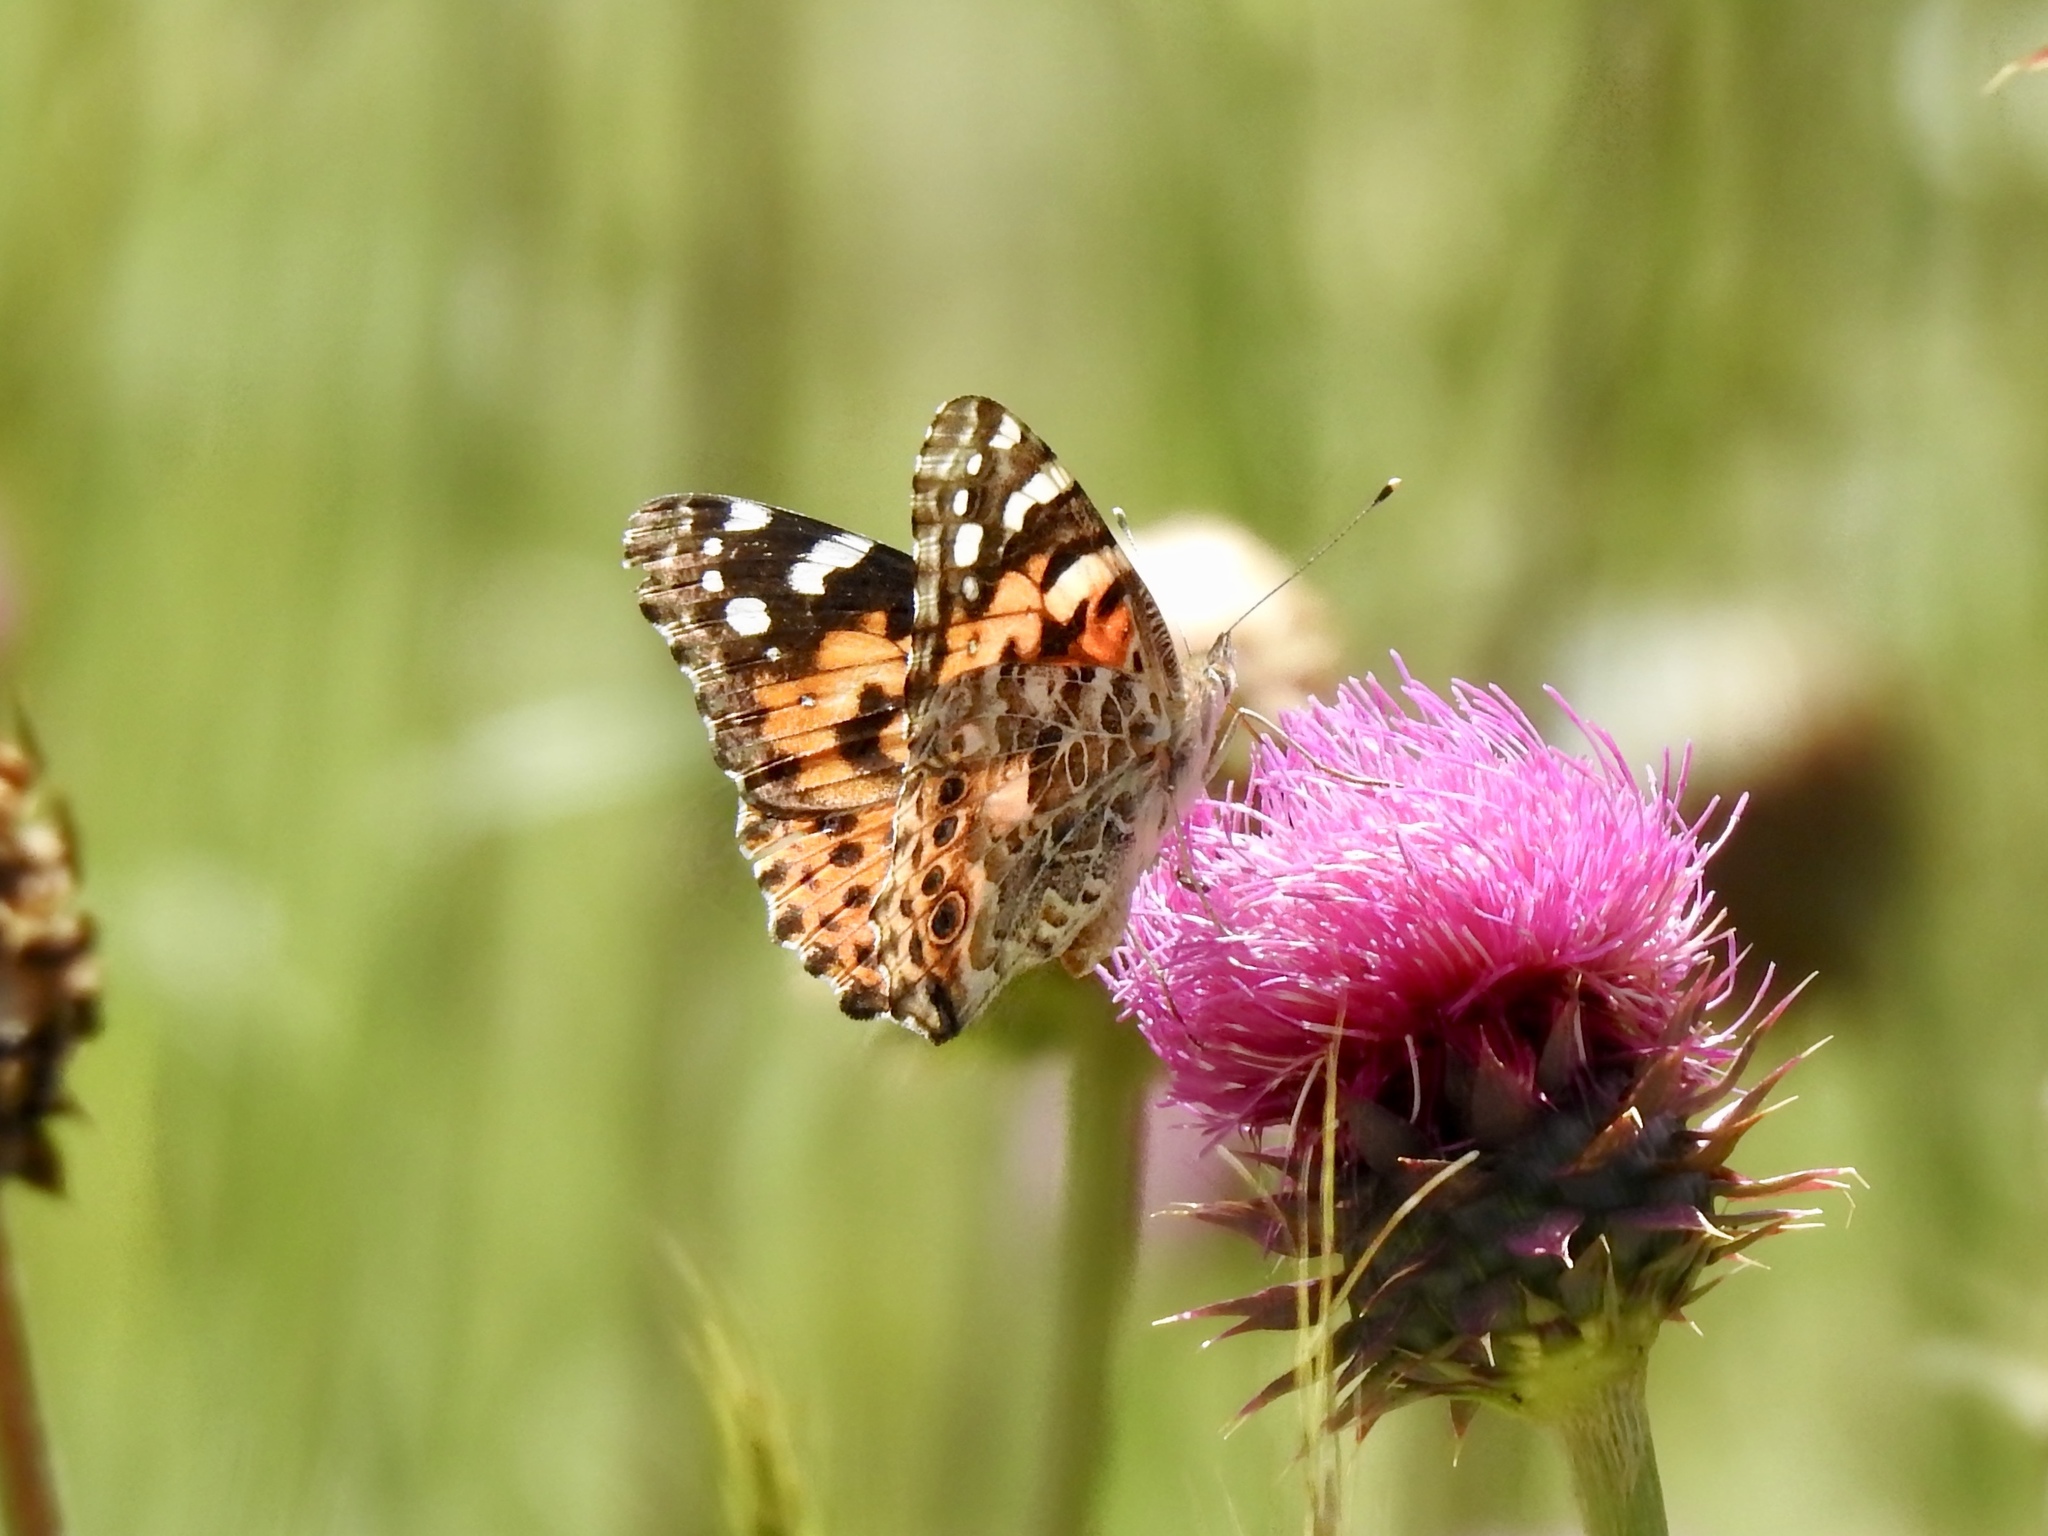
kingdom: Animalia
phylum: Arthropoda
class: Insecta
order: Lepidoptera
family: Nymphalidae
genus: Vanessa
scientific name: Vanessa cardui
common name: Painted lady
